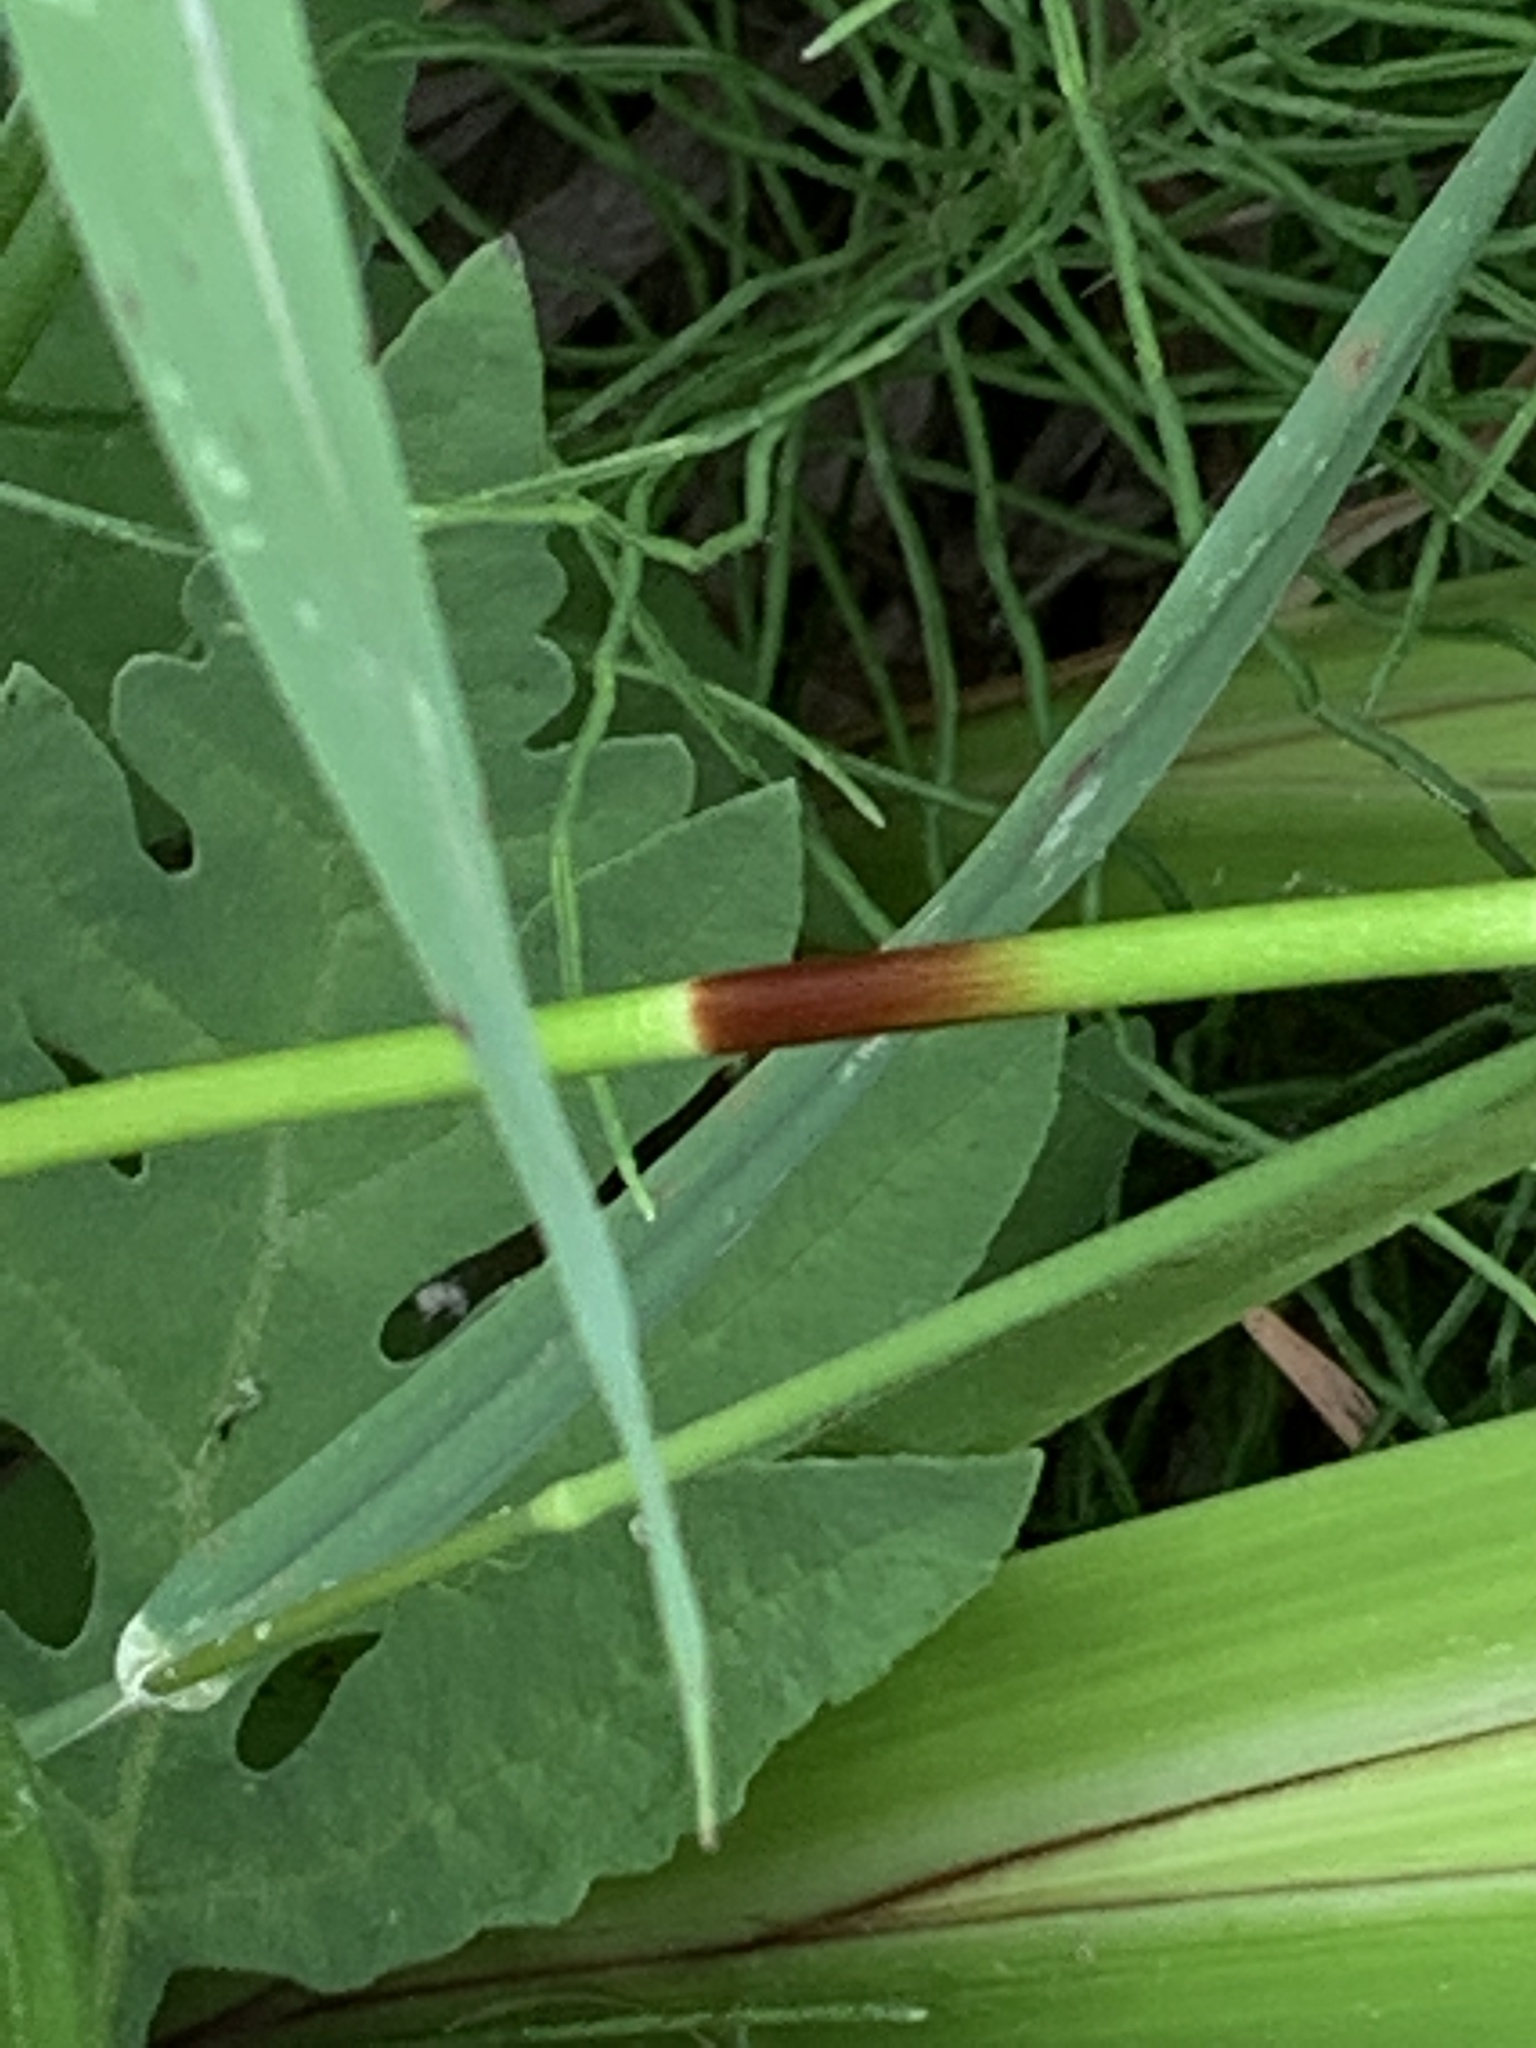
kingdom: Plantae
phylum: Tracheophyta
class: Liliopsida
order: Poales
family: Cyperaceae
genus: Scirpus
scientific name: Scirpus microcarpus
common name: Panicled bulrush
